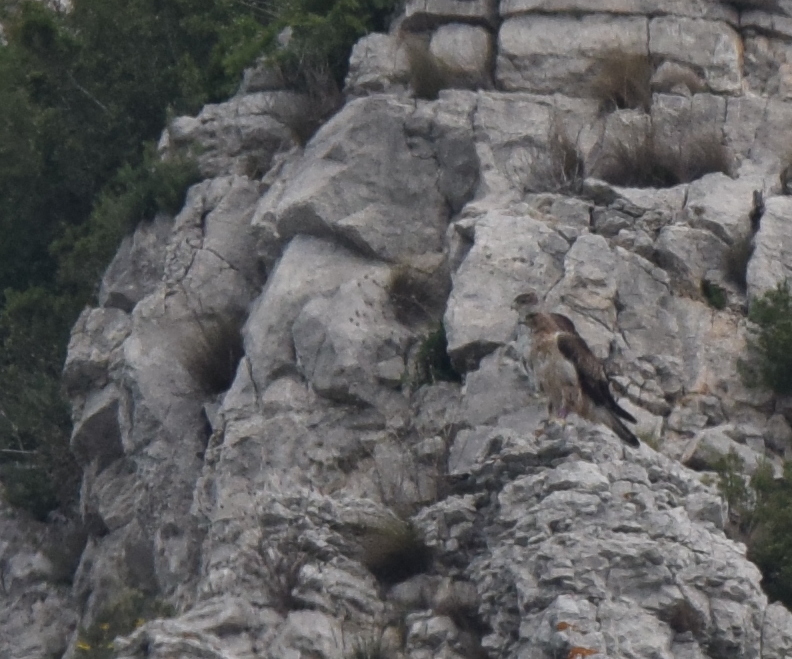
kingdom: Animalia
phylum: Chordata
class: Aves
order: Accipitriformes
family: Accipitridae
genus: Aquila
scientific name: Aquila fasciata
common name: Bonelli's eagle
